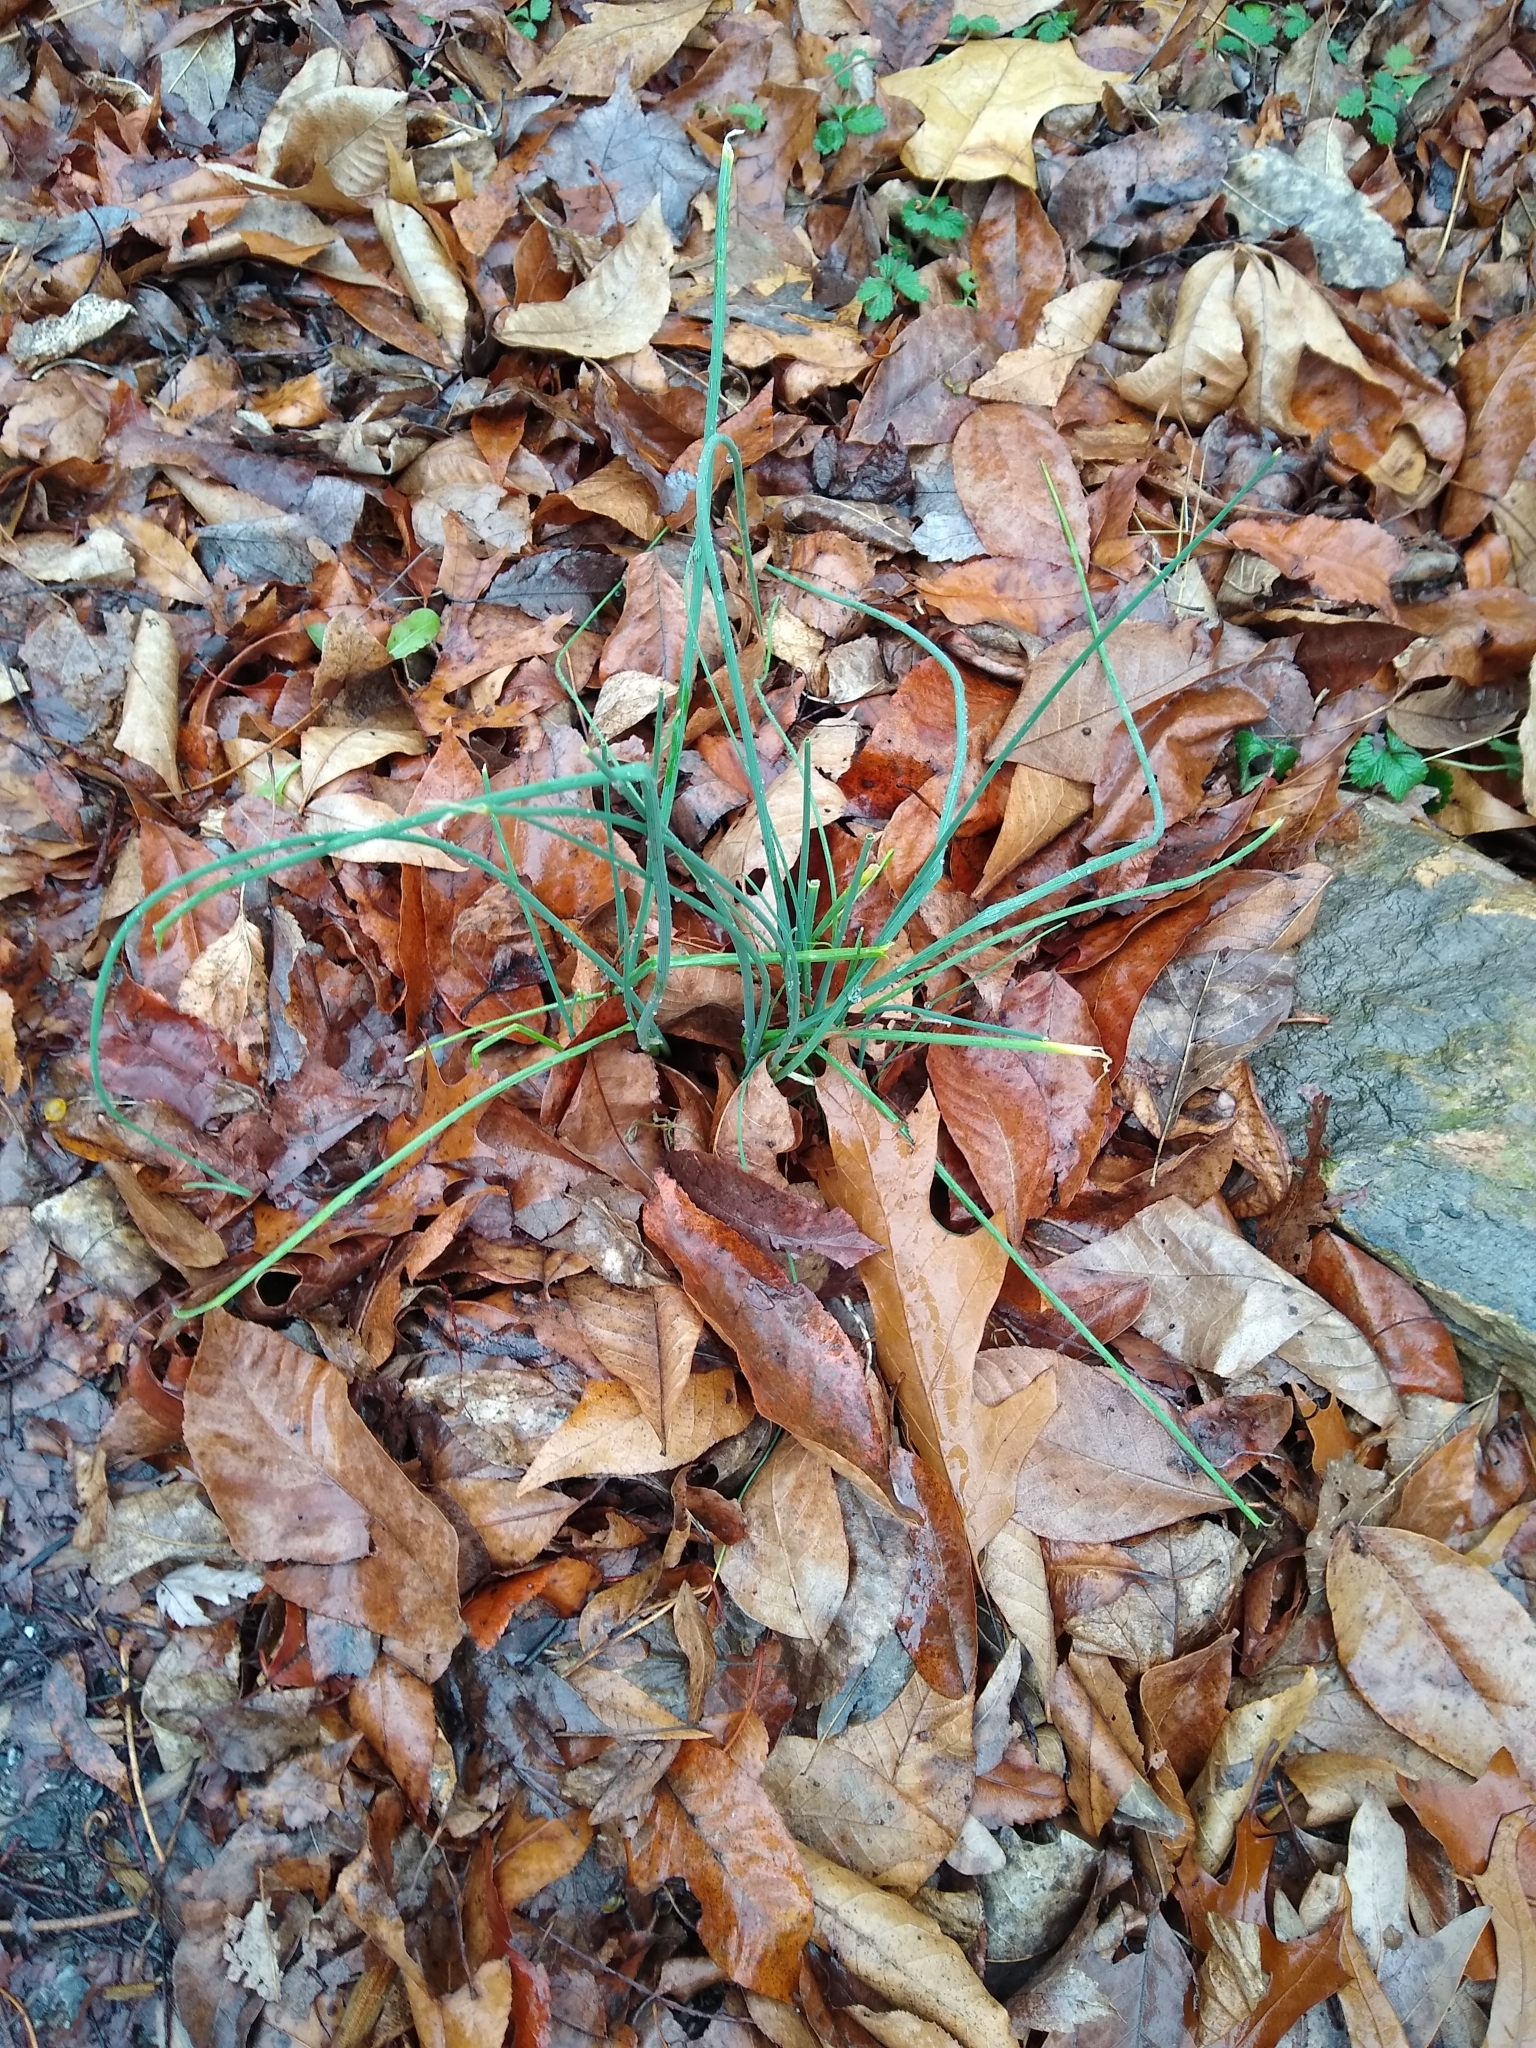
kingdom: Plantae
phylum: Tracheophyta
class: Liliopsida
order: Asparagales
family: Amaryllidaceae
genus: Allium
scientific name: Allium vineale
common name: Crow garlic
